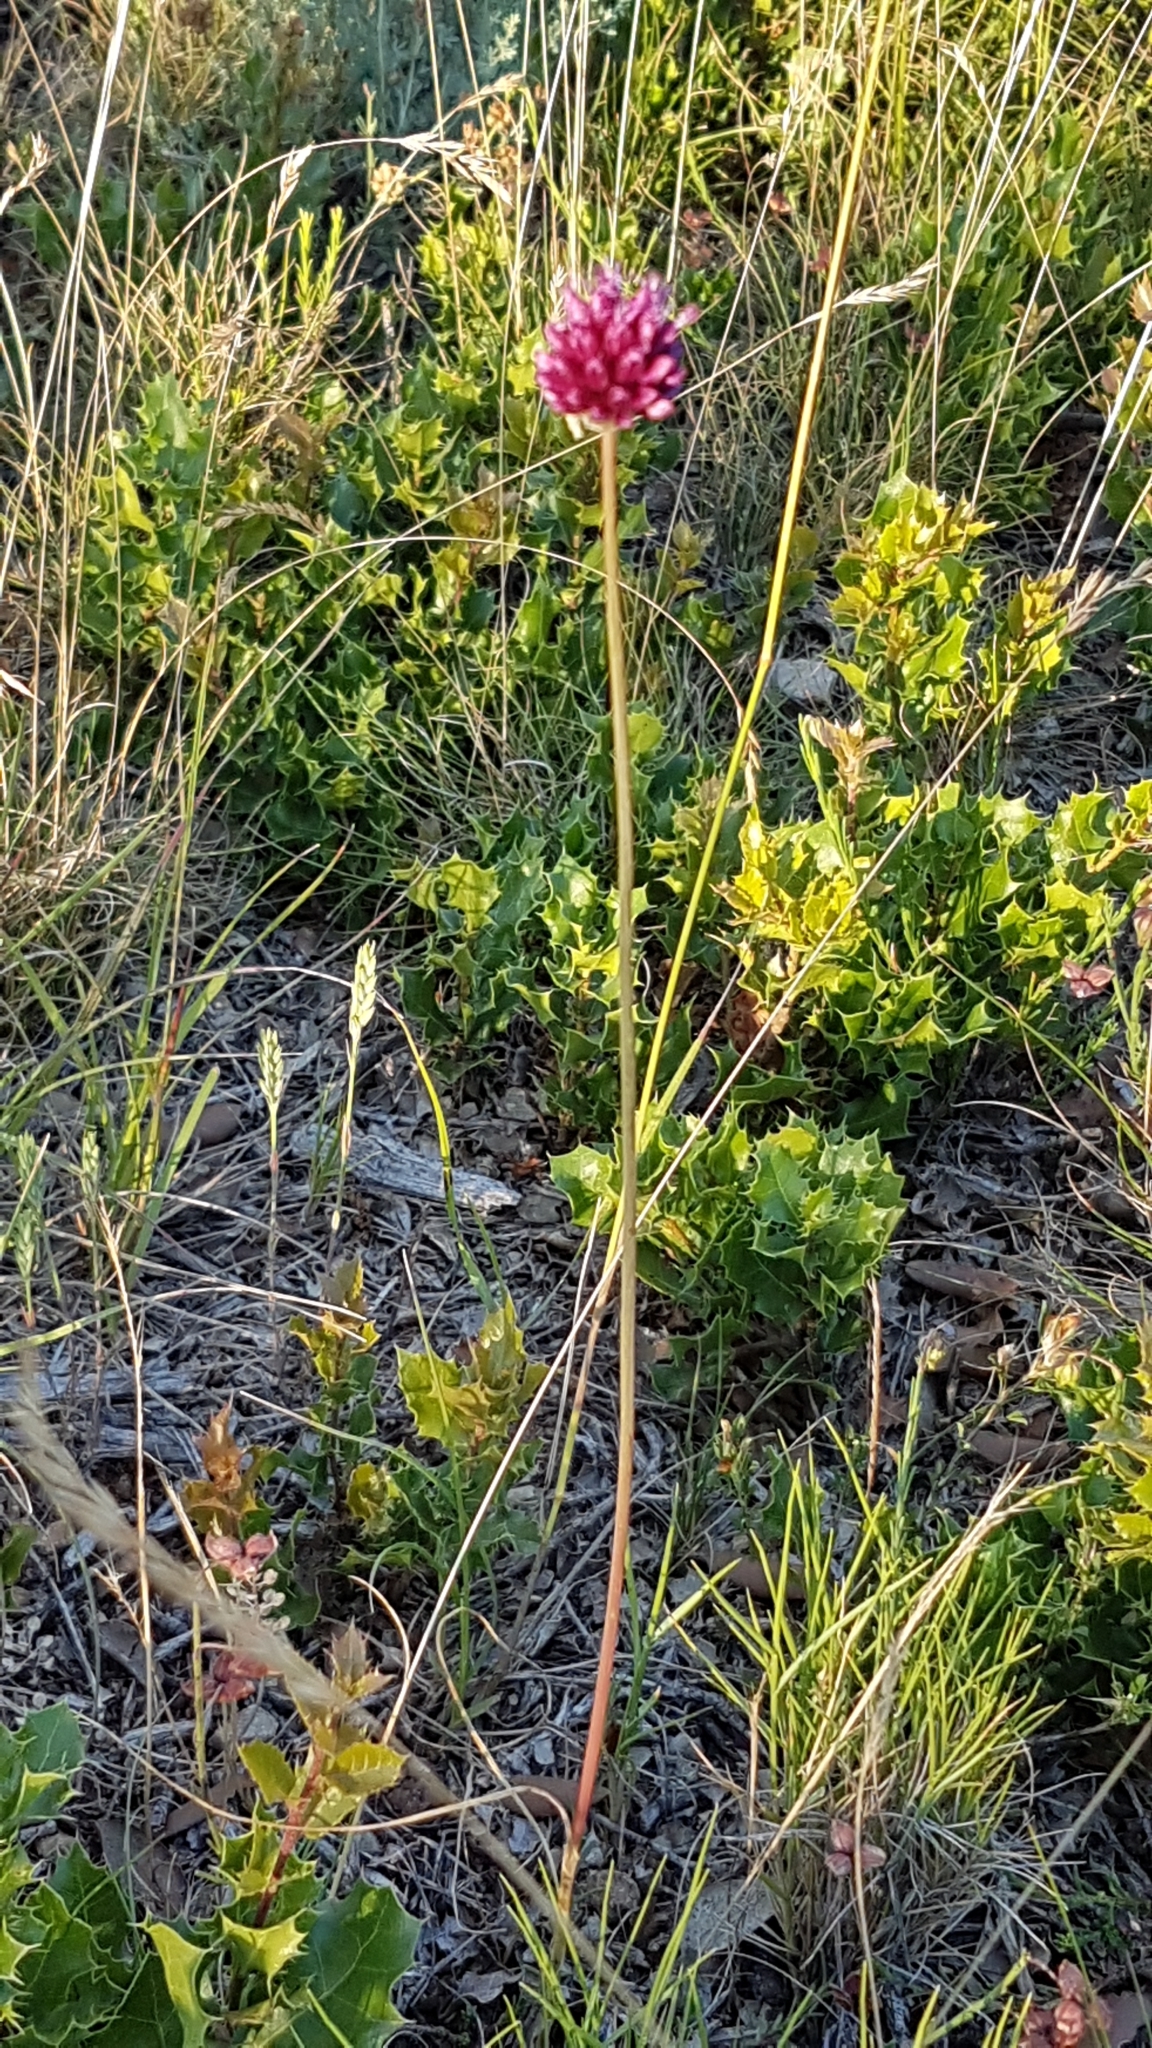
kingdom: Plantae
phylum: Tracheophyta
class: Liliopsida
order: Asparagales
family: Amaryllidaceae
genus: Allium
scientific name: Allium sphaerocephalon
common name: Round-headed leek
